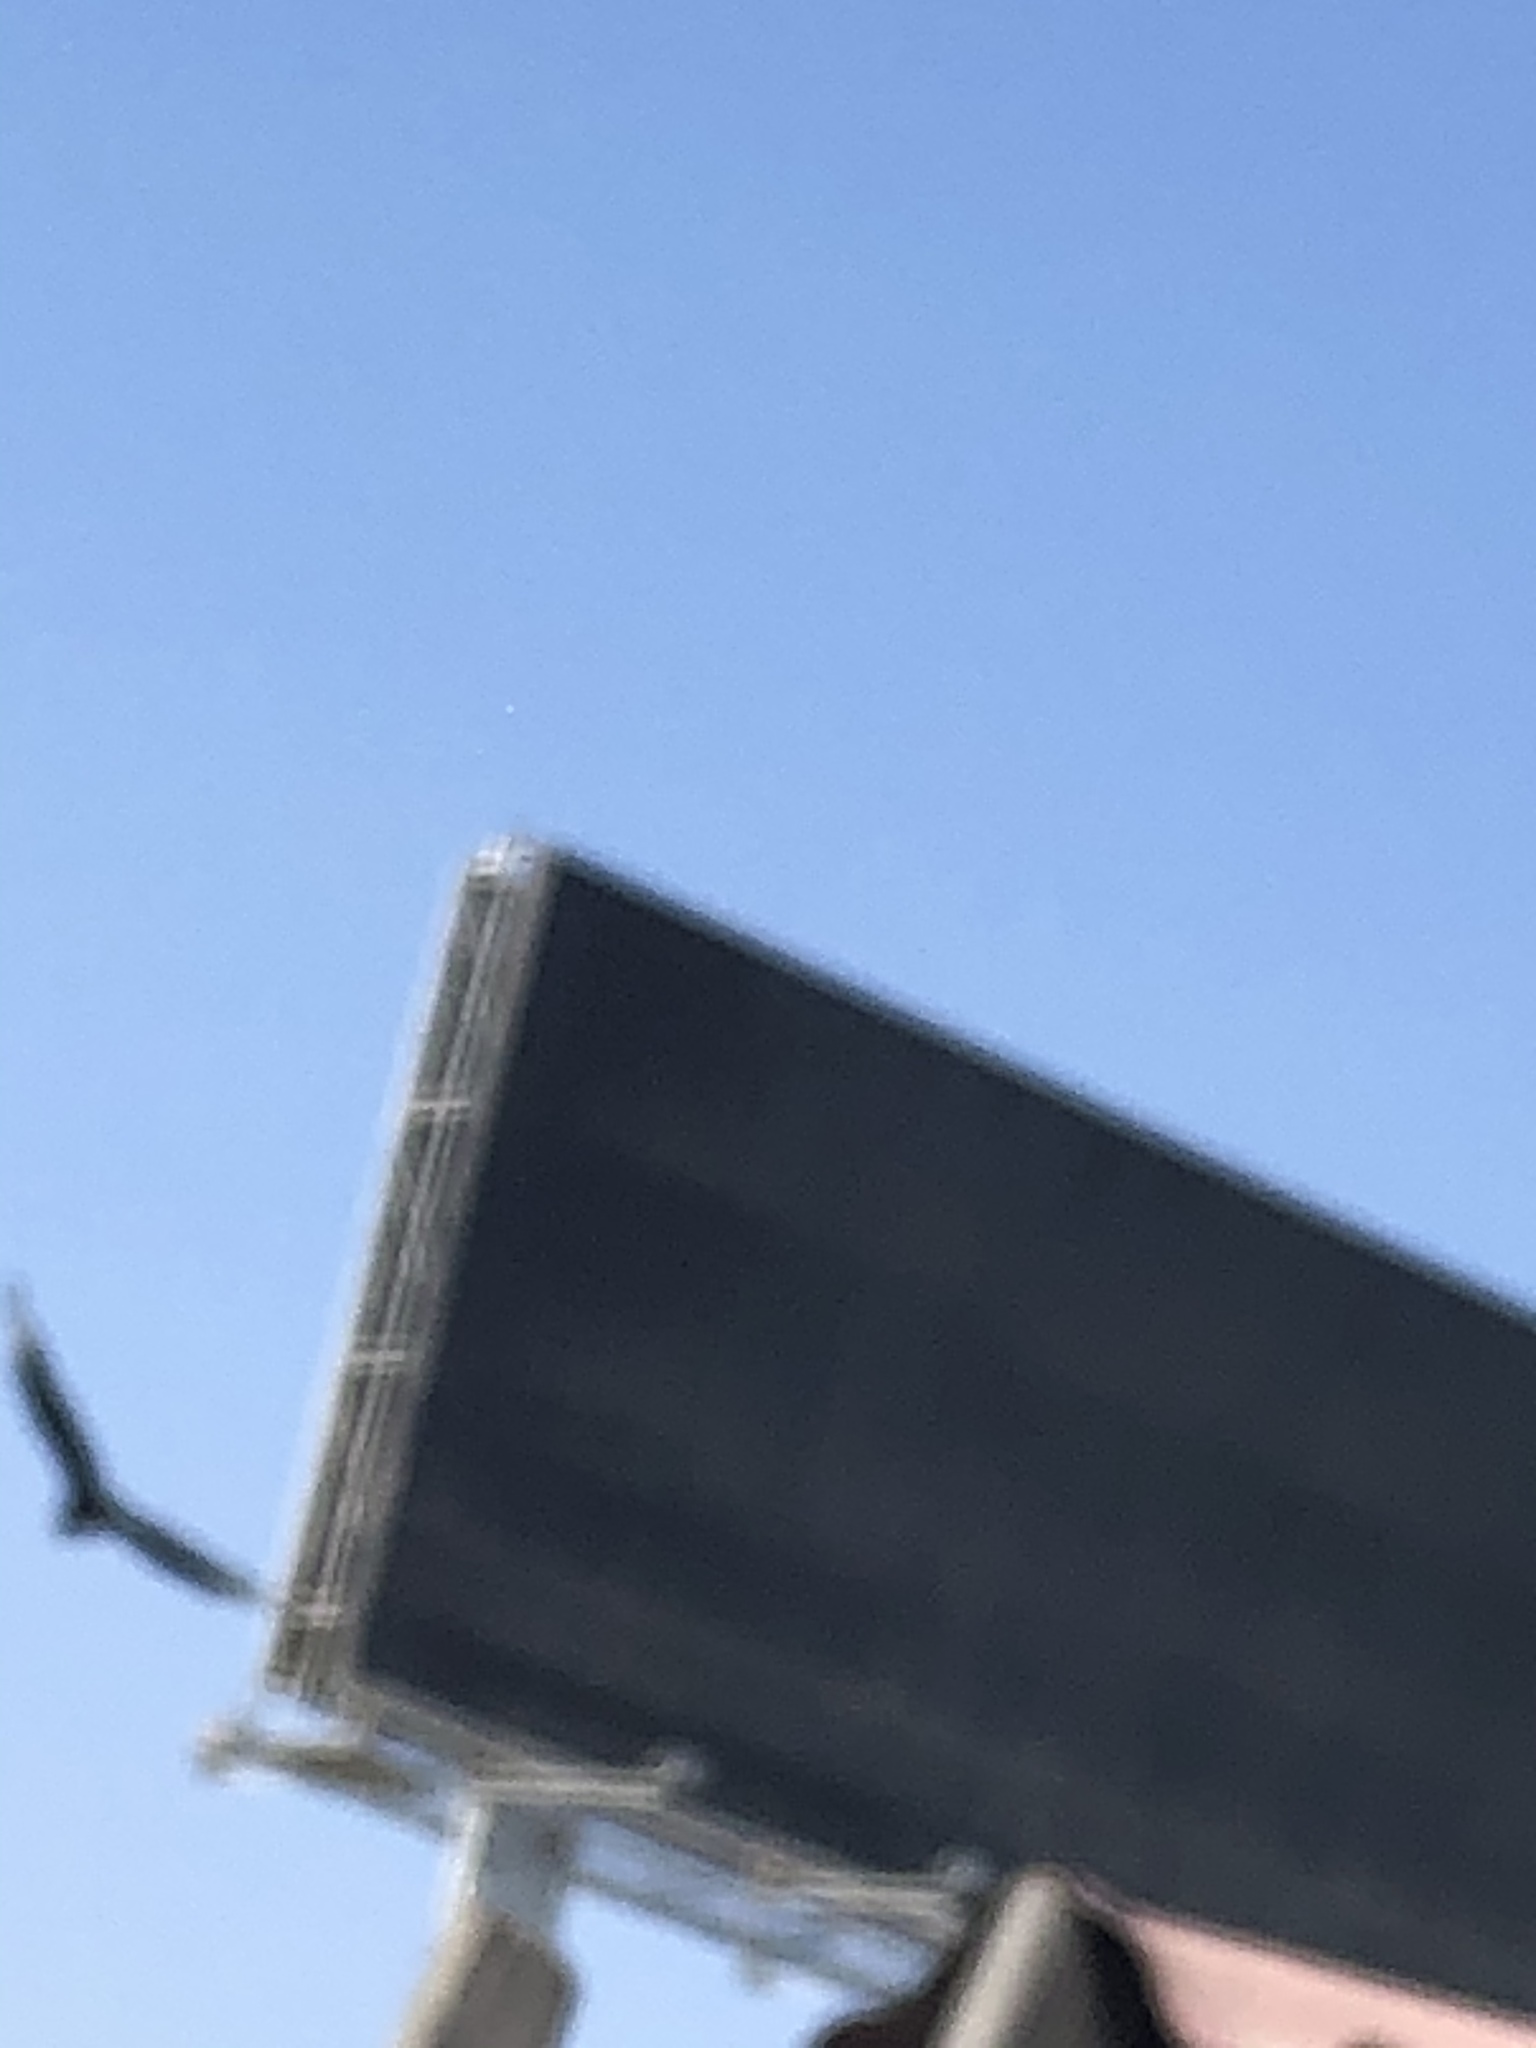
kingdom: Animalia
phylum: Chordata
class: Aves
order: Accipitriformes
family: Cathartidae
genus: Coragyps
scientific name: Coragyps atratus
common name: Black vulture
